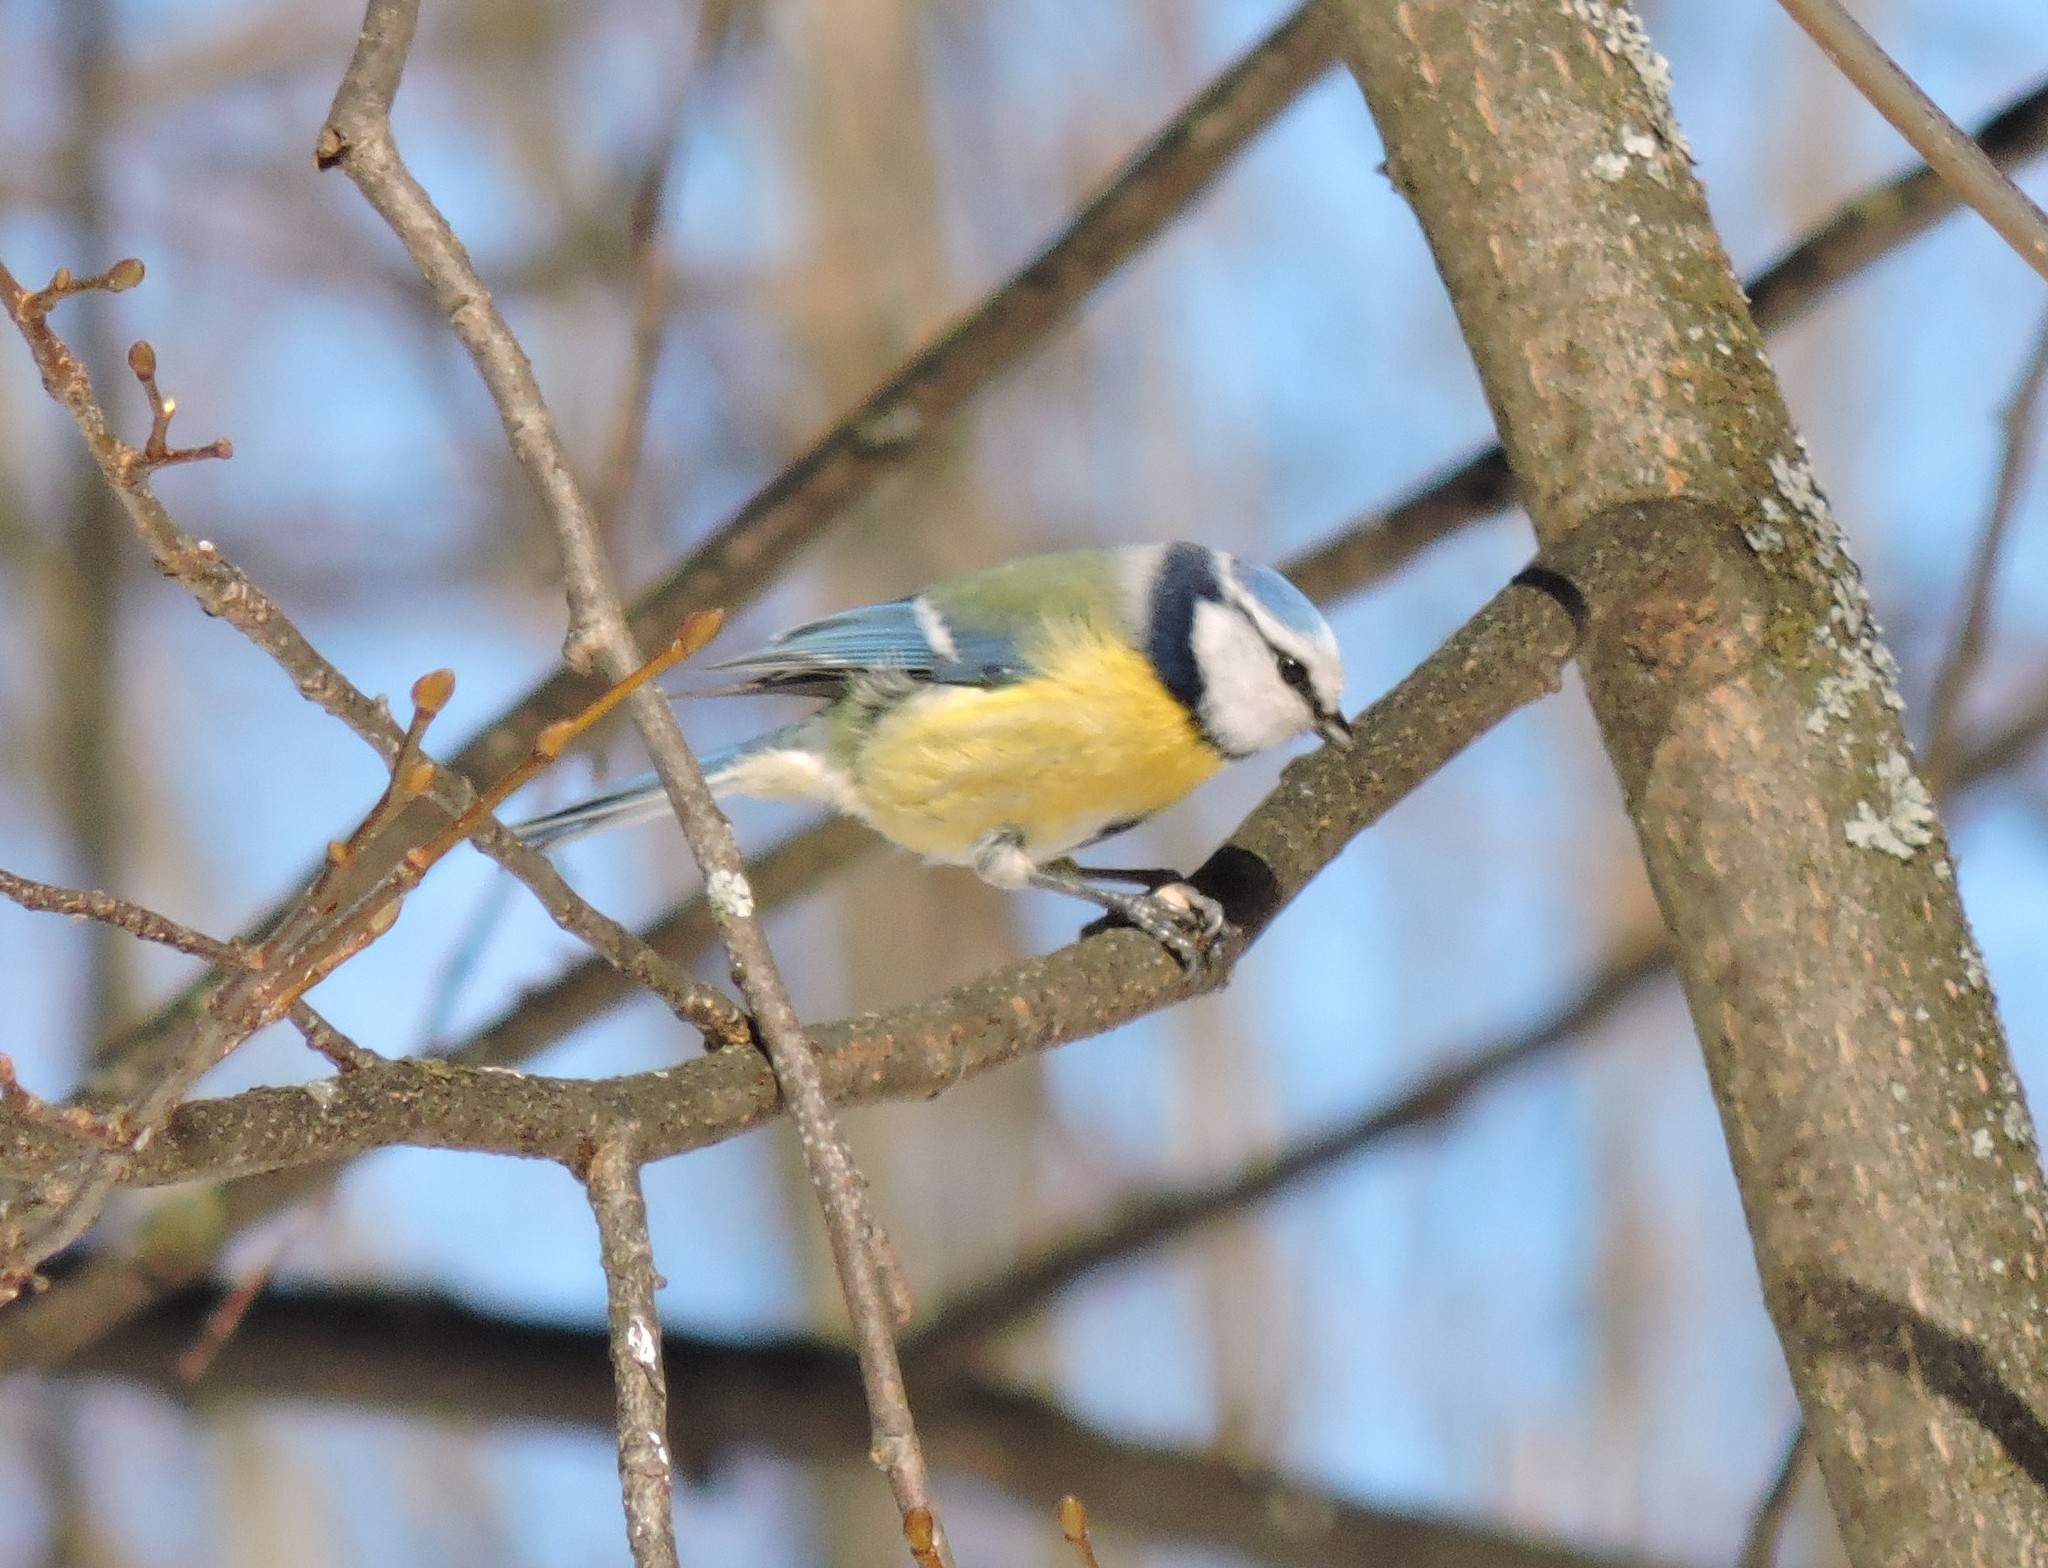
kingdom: Animalia
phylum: Chordata
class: Aves
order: Passeriformes
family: Paridae
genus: Cyanistes
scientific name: Cyanistes caeruleus
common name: Eurasian blue tit
